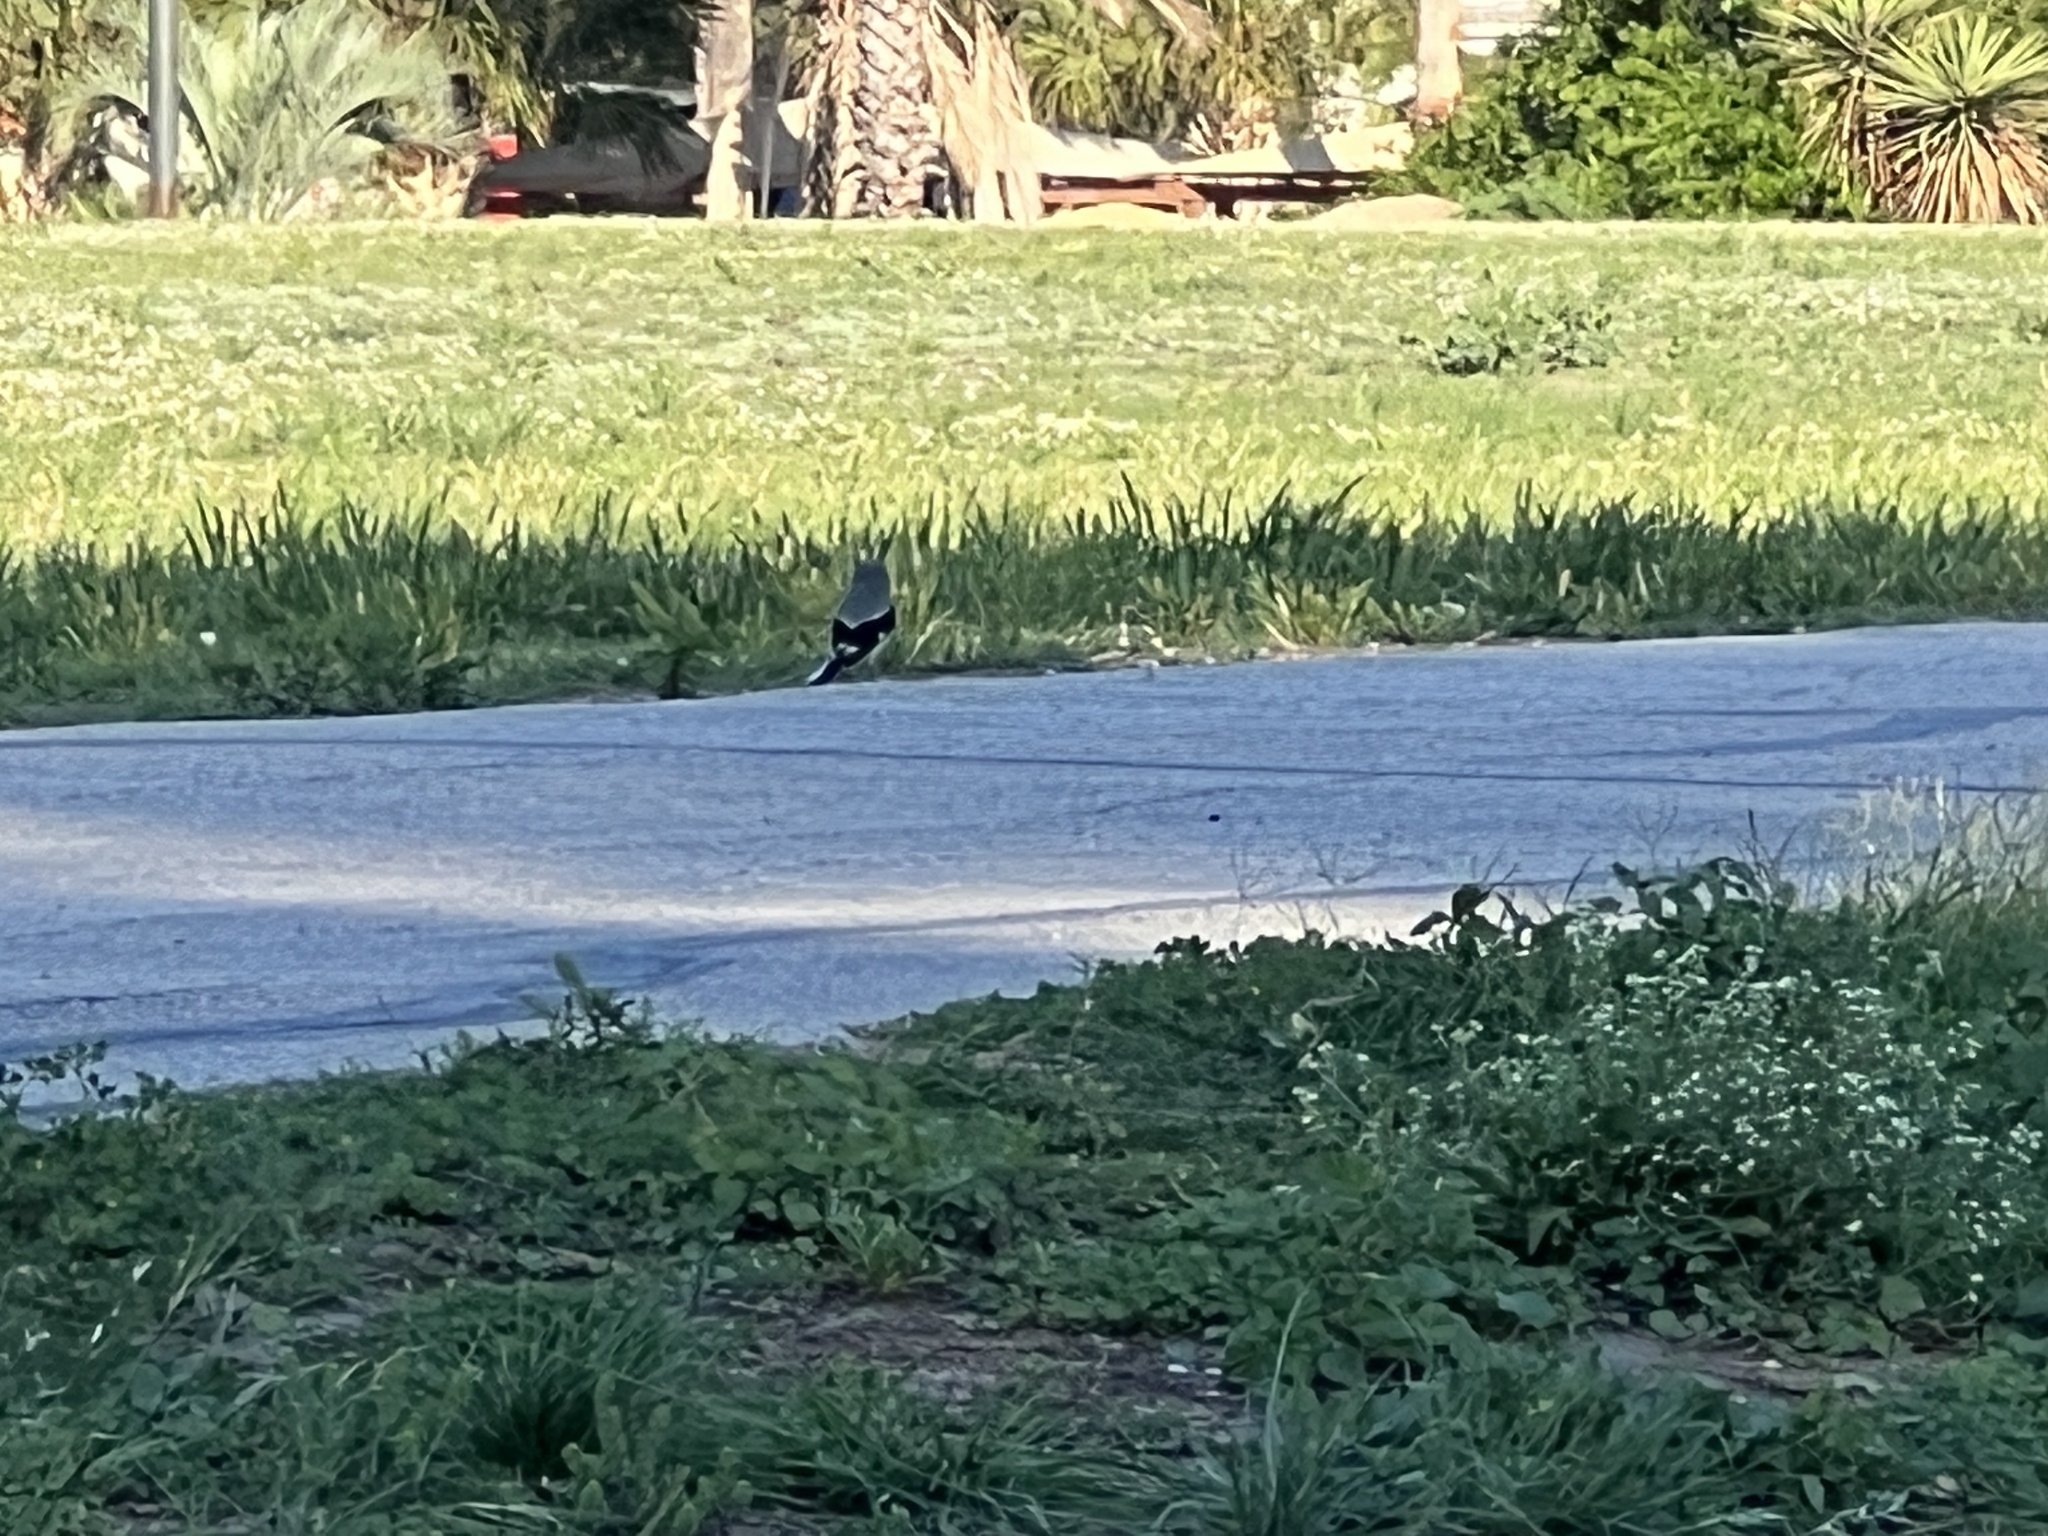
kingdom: Animalia
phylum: Chordata
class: Aves
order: Passeriformes
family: Laniidae
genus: Lanius
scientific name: Lanius ludovicianus
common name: Loggerhead shrike
